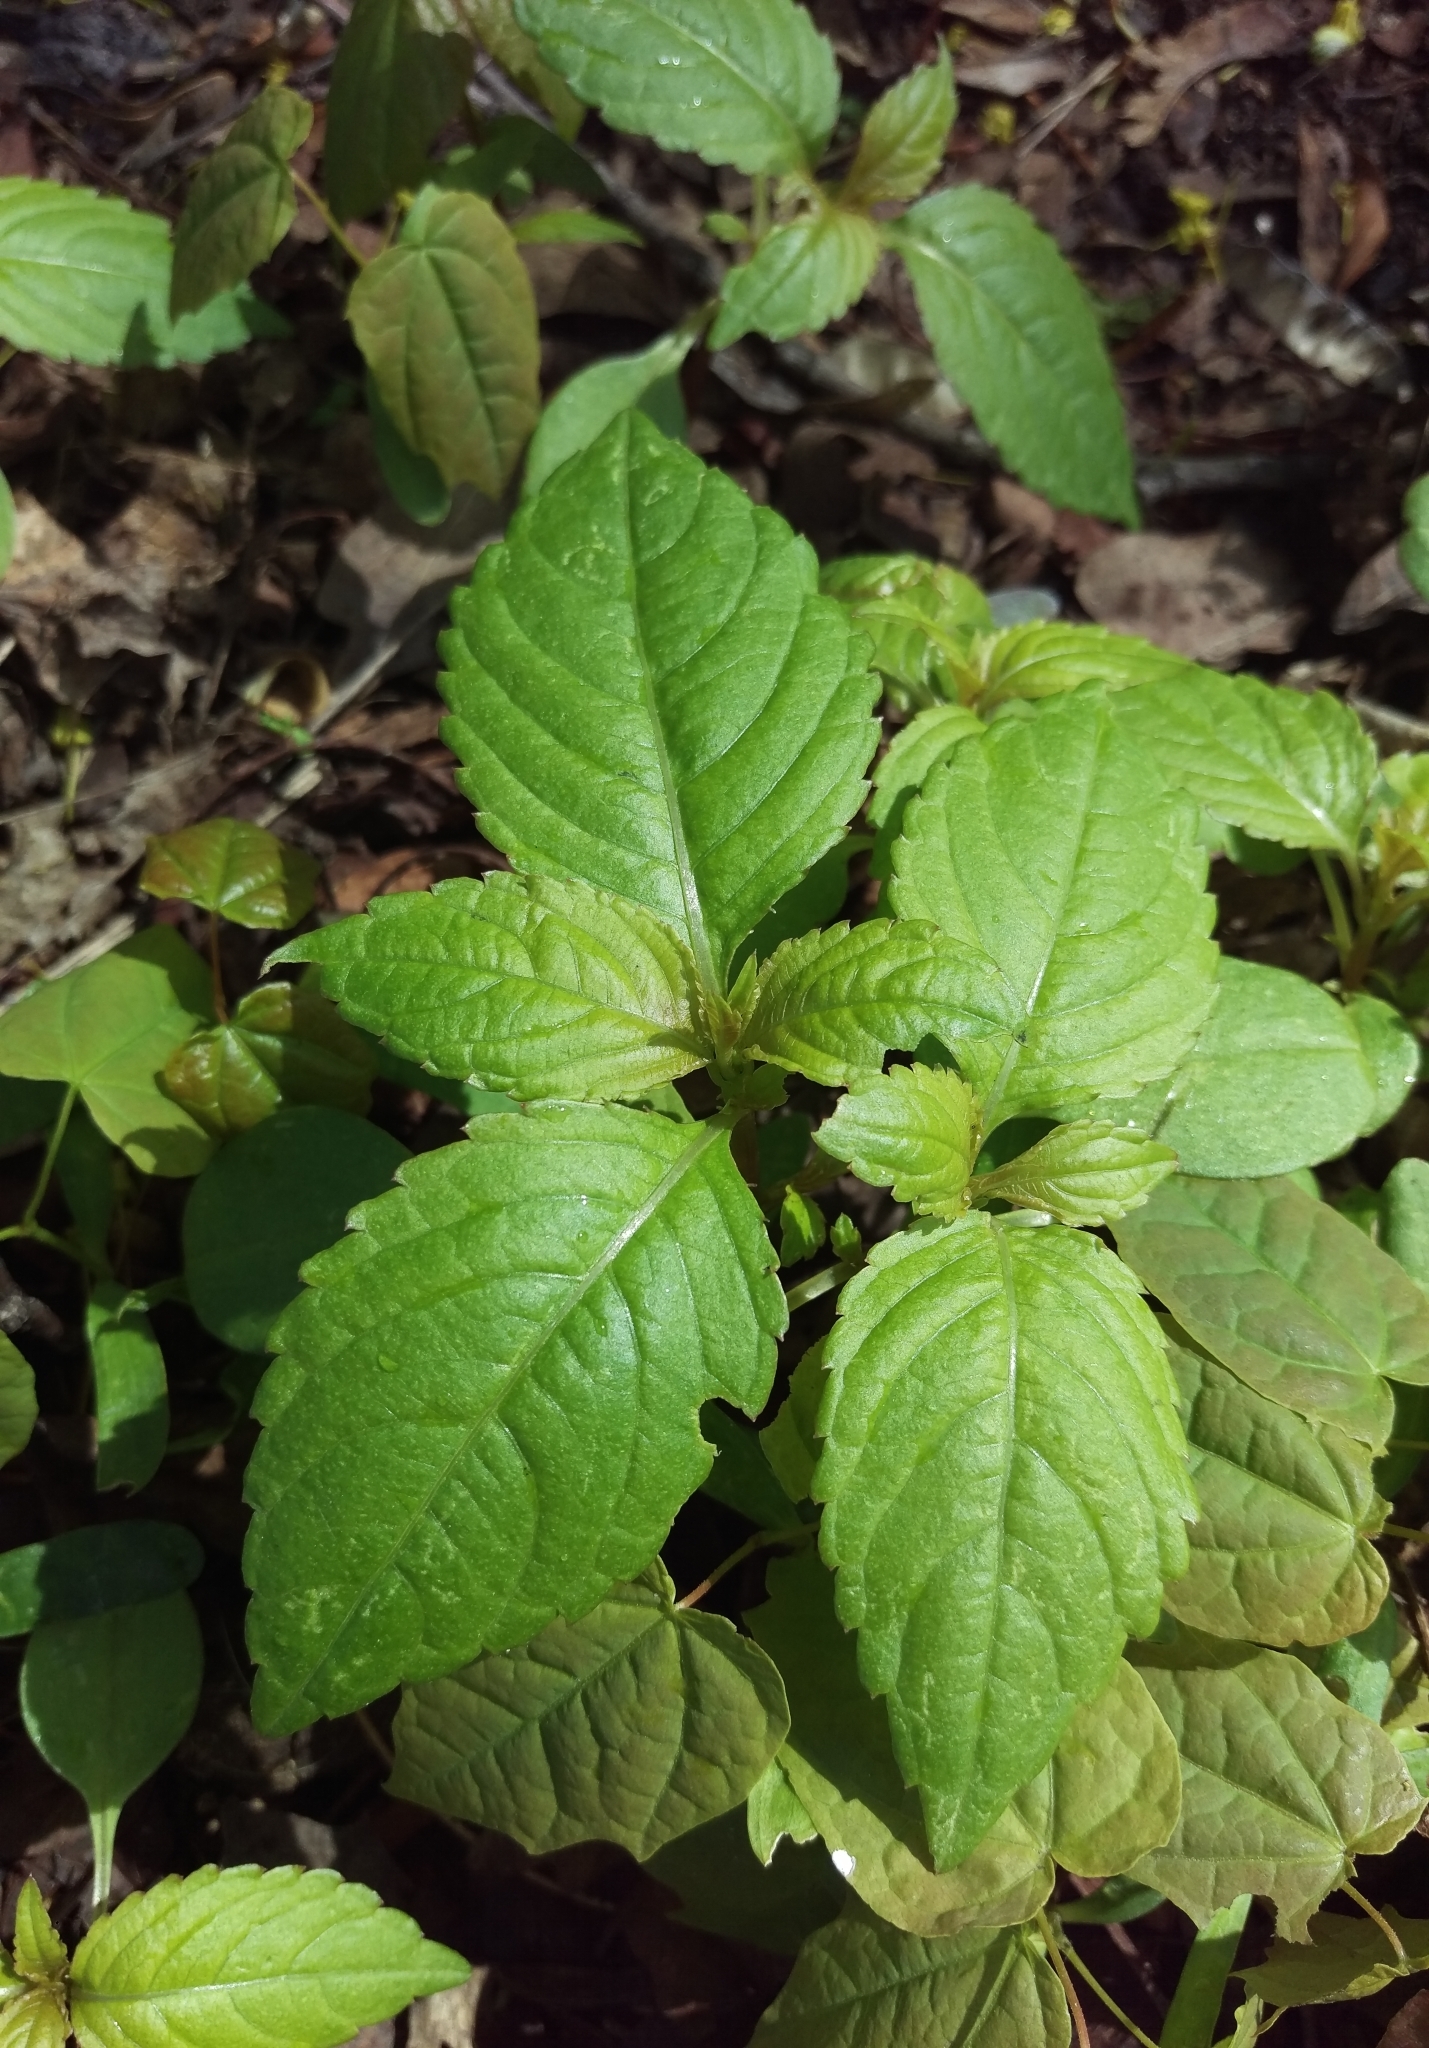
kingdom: Plantae
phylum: Tracheophyta
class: Magnoliopsida
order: Ericales
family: Balsaminaceae
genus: Impatiens
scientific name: Impatiens parviflora
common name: Small balsam
